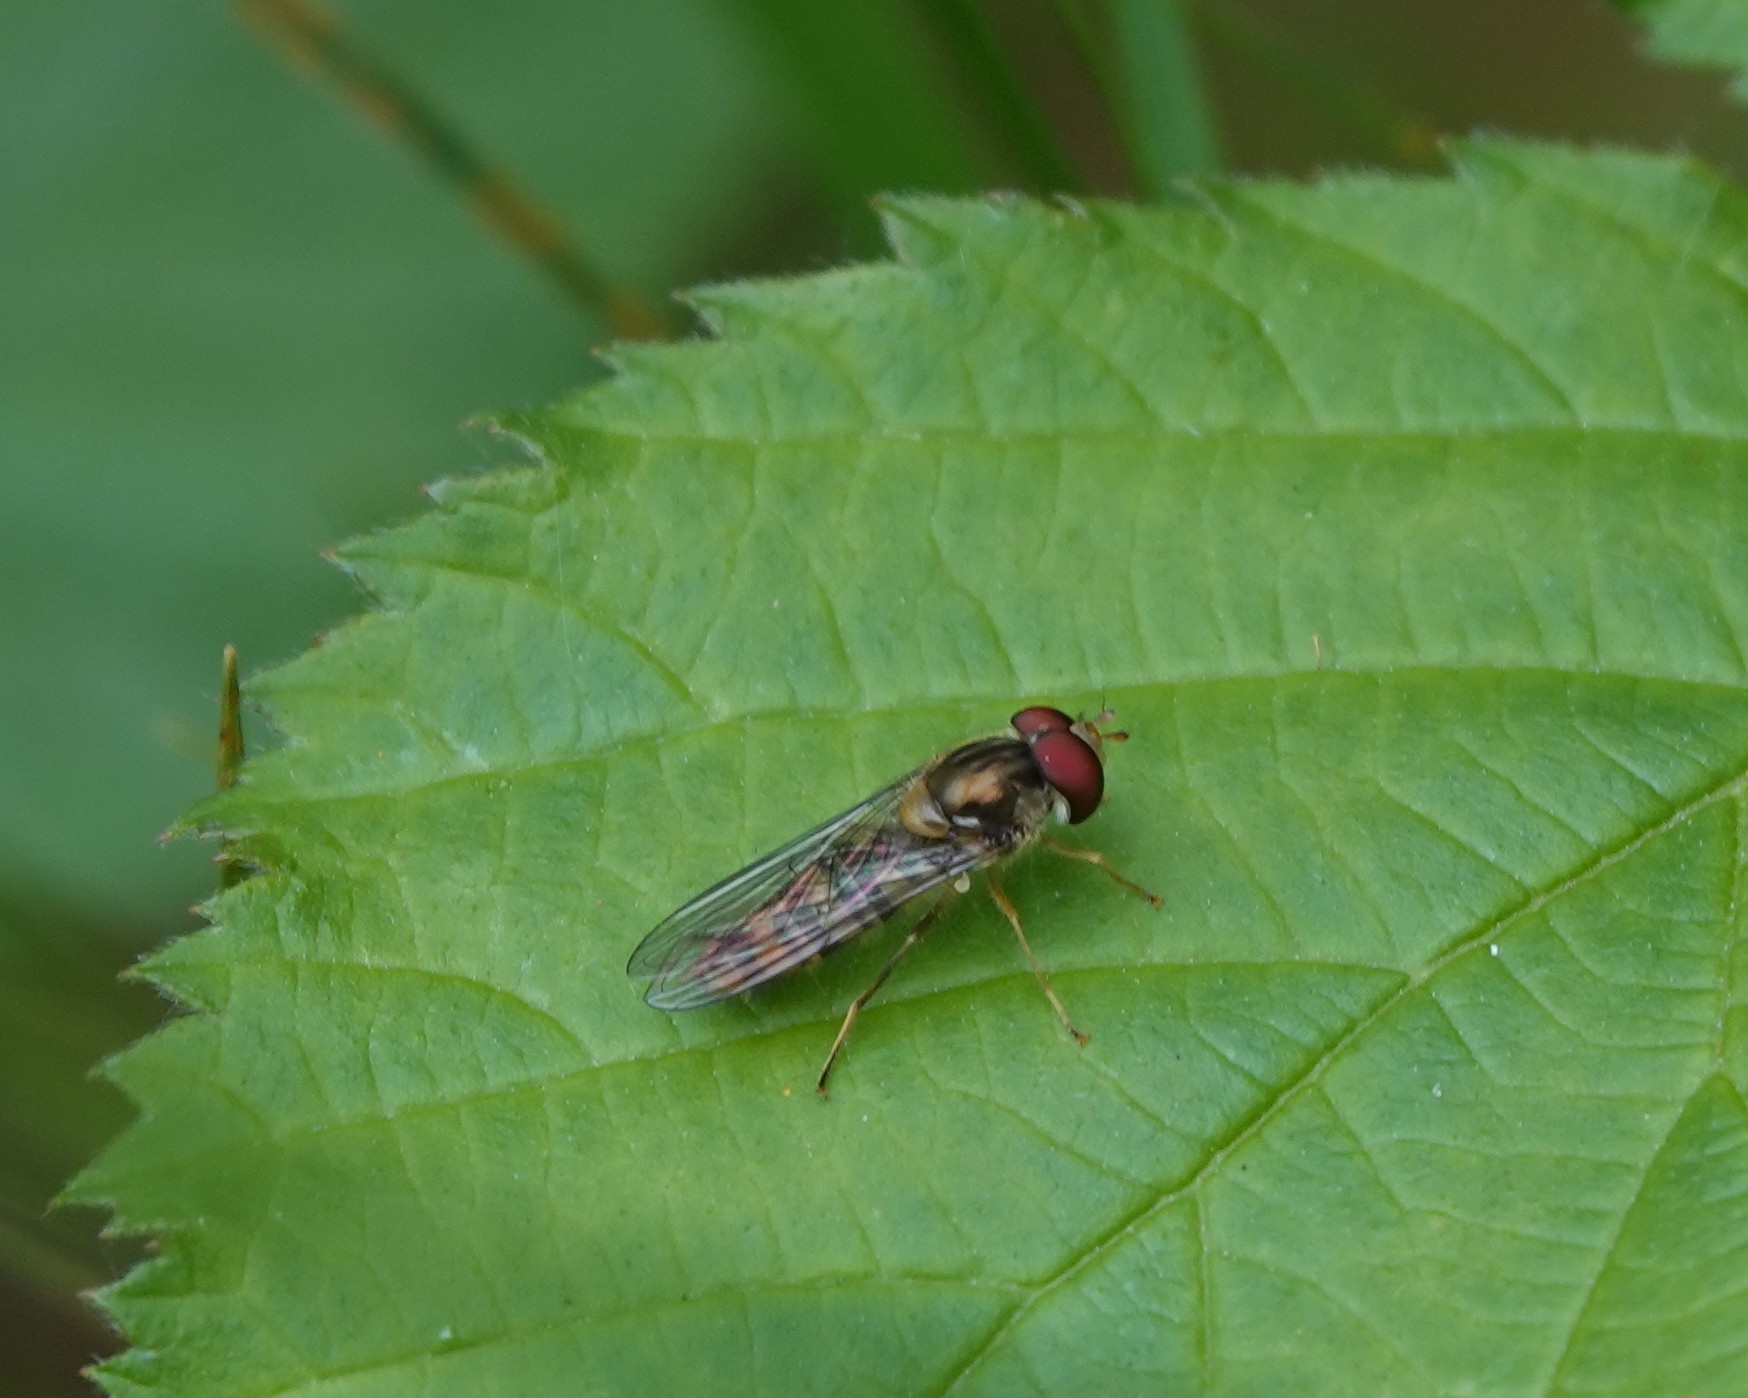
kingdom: Animalia
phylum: Arthropoda
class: Insecta
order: Diptera
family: Syrphidae
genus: Episyrphus
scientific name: Episyrphus balteatus
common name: Marmalade hoverfly
